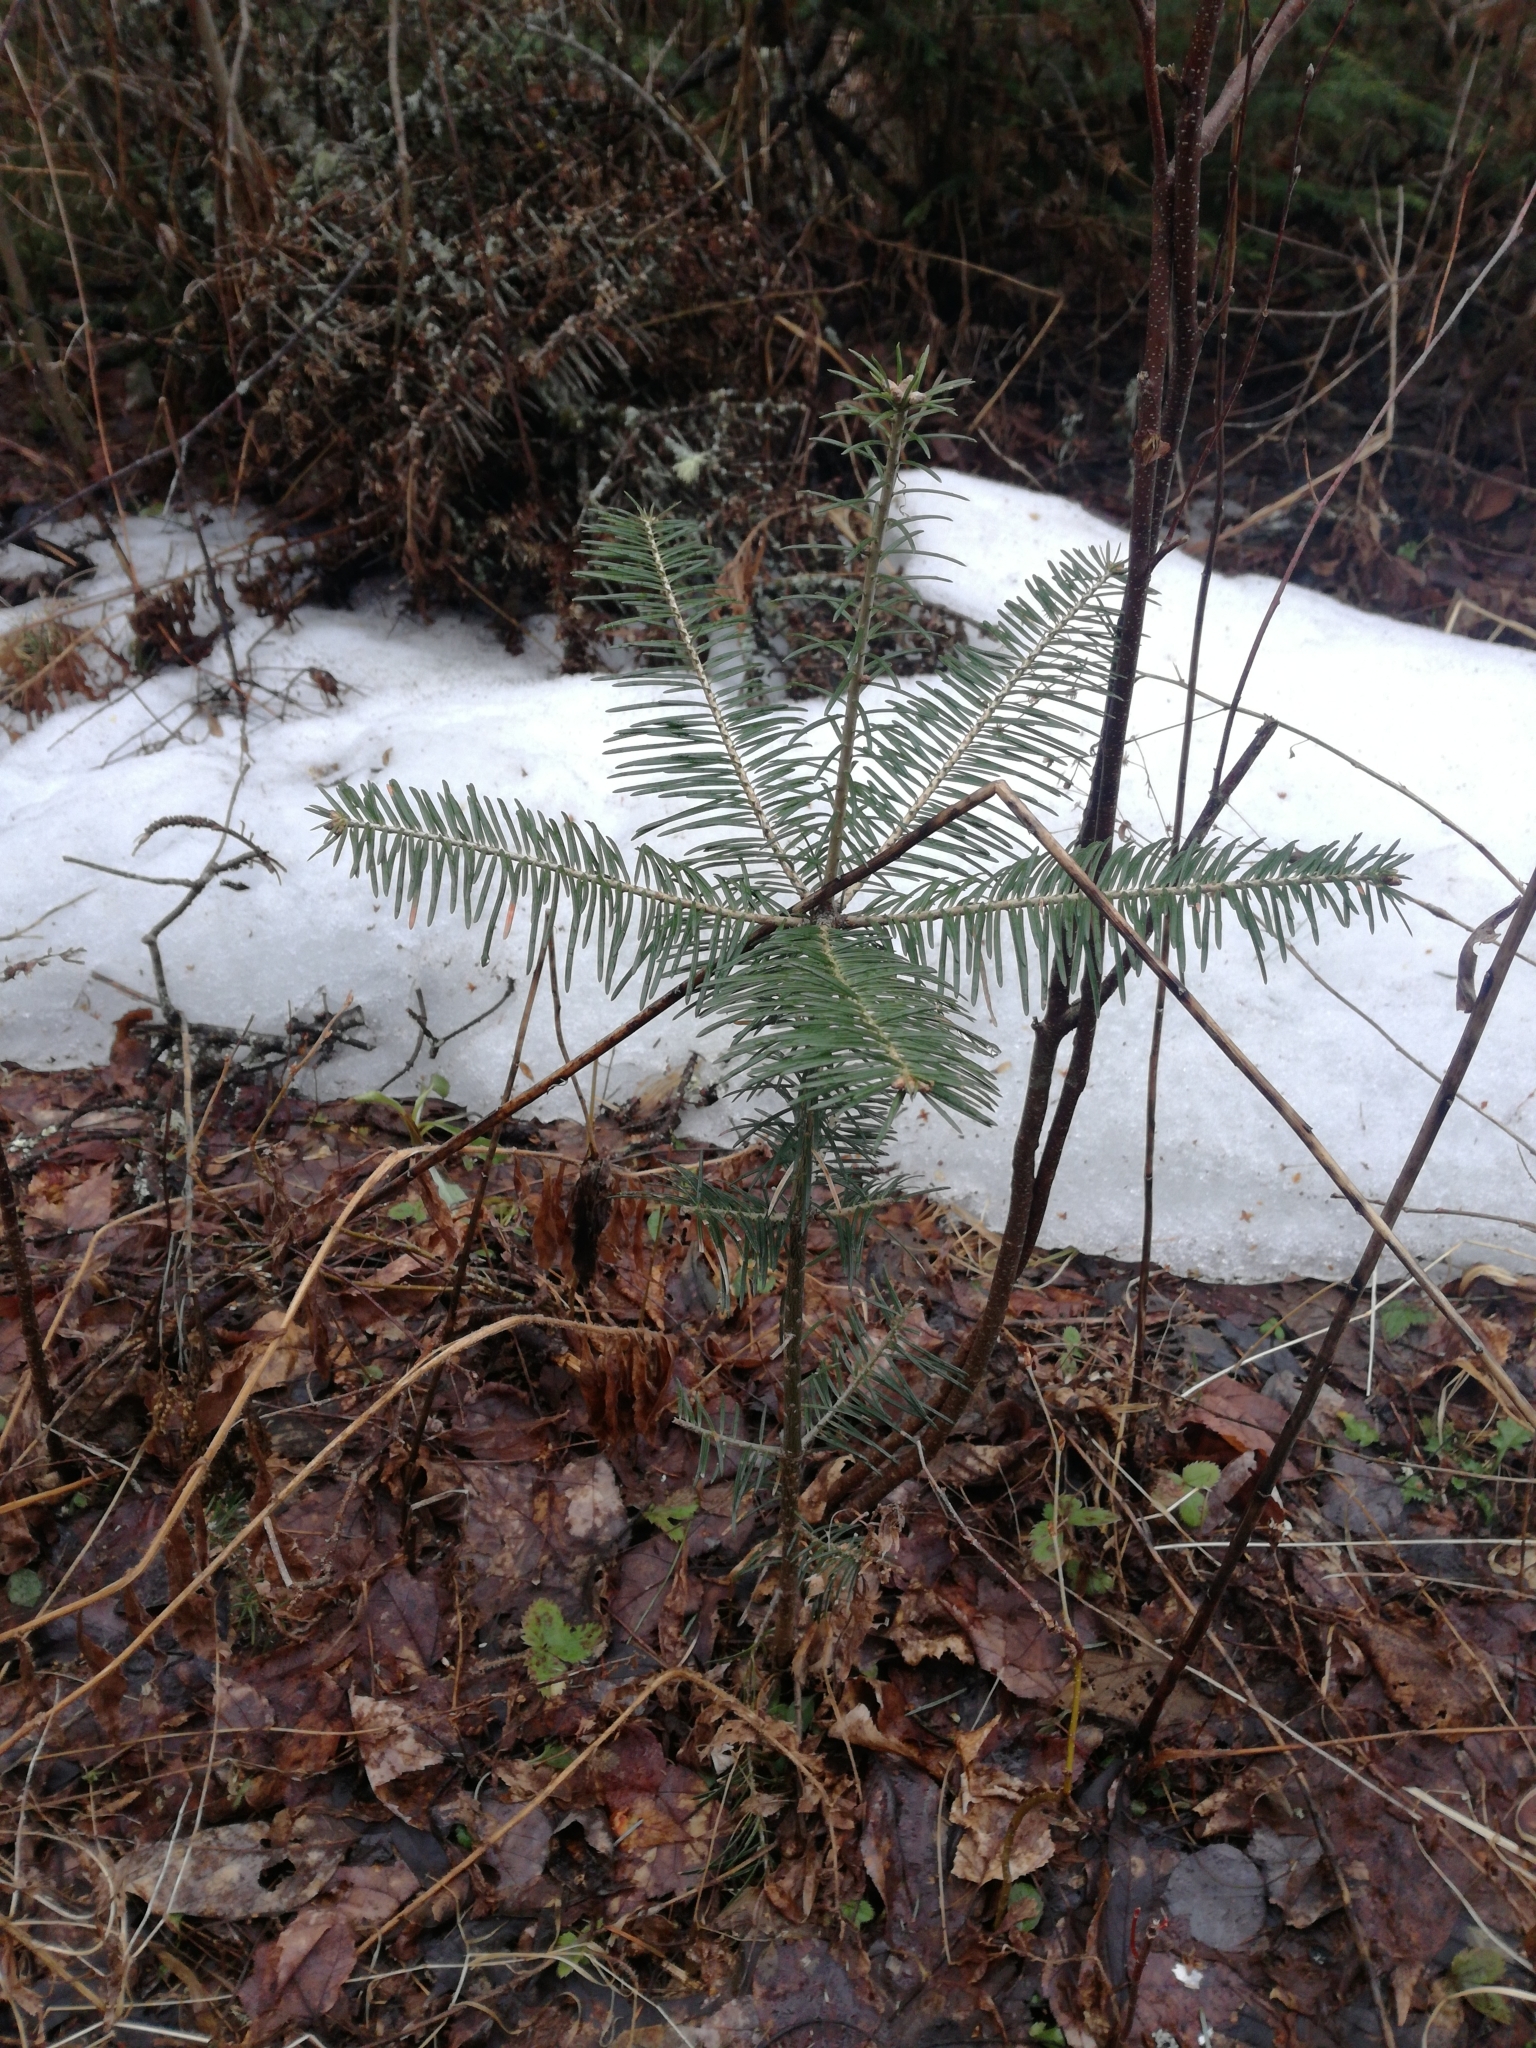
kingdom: Plantae
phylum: Tracheophyta
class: Pinopsida
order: Pinales
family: Pinaceae
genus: Abies
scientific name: Abies balsamea
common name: Balsam fir
